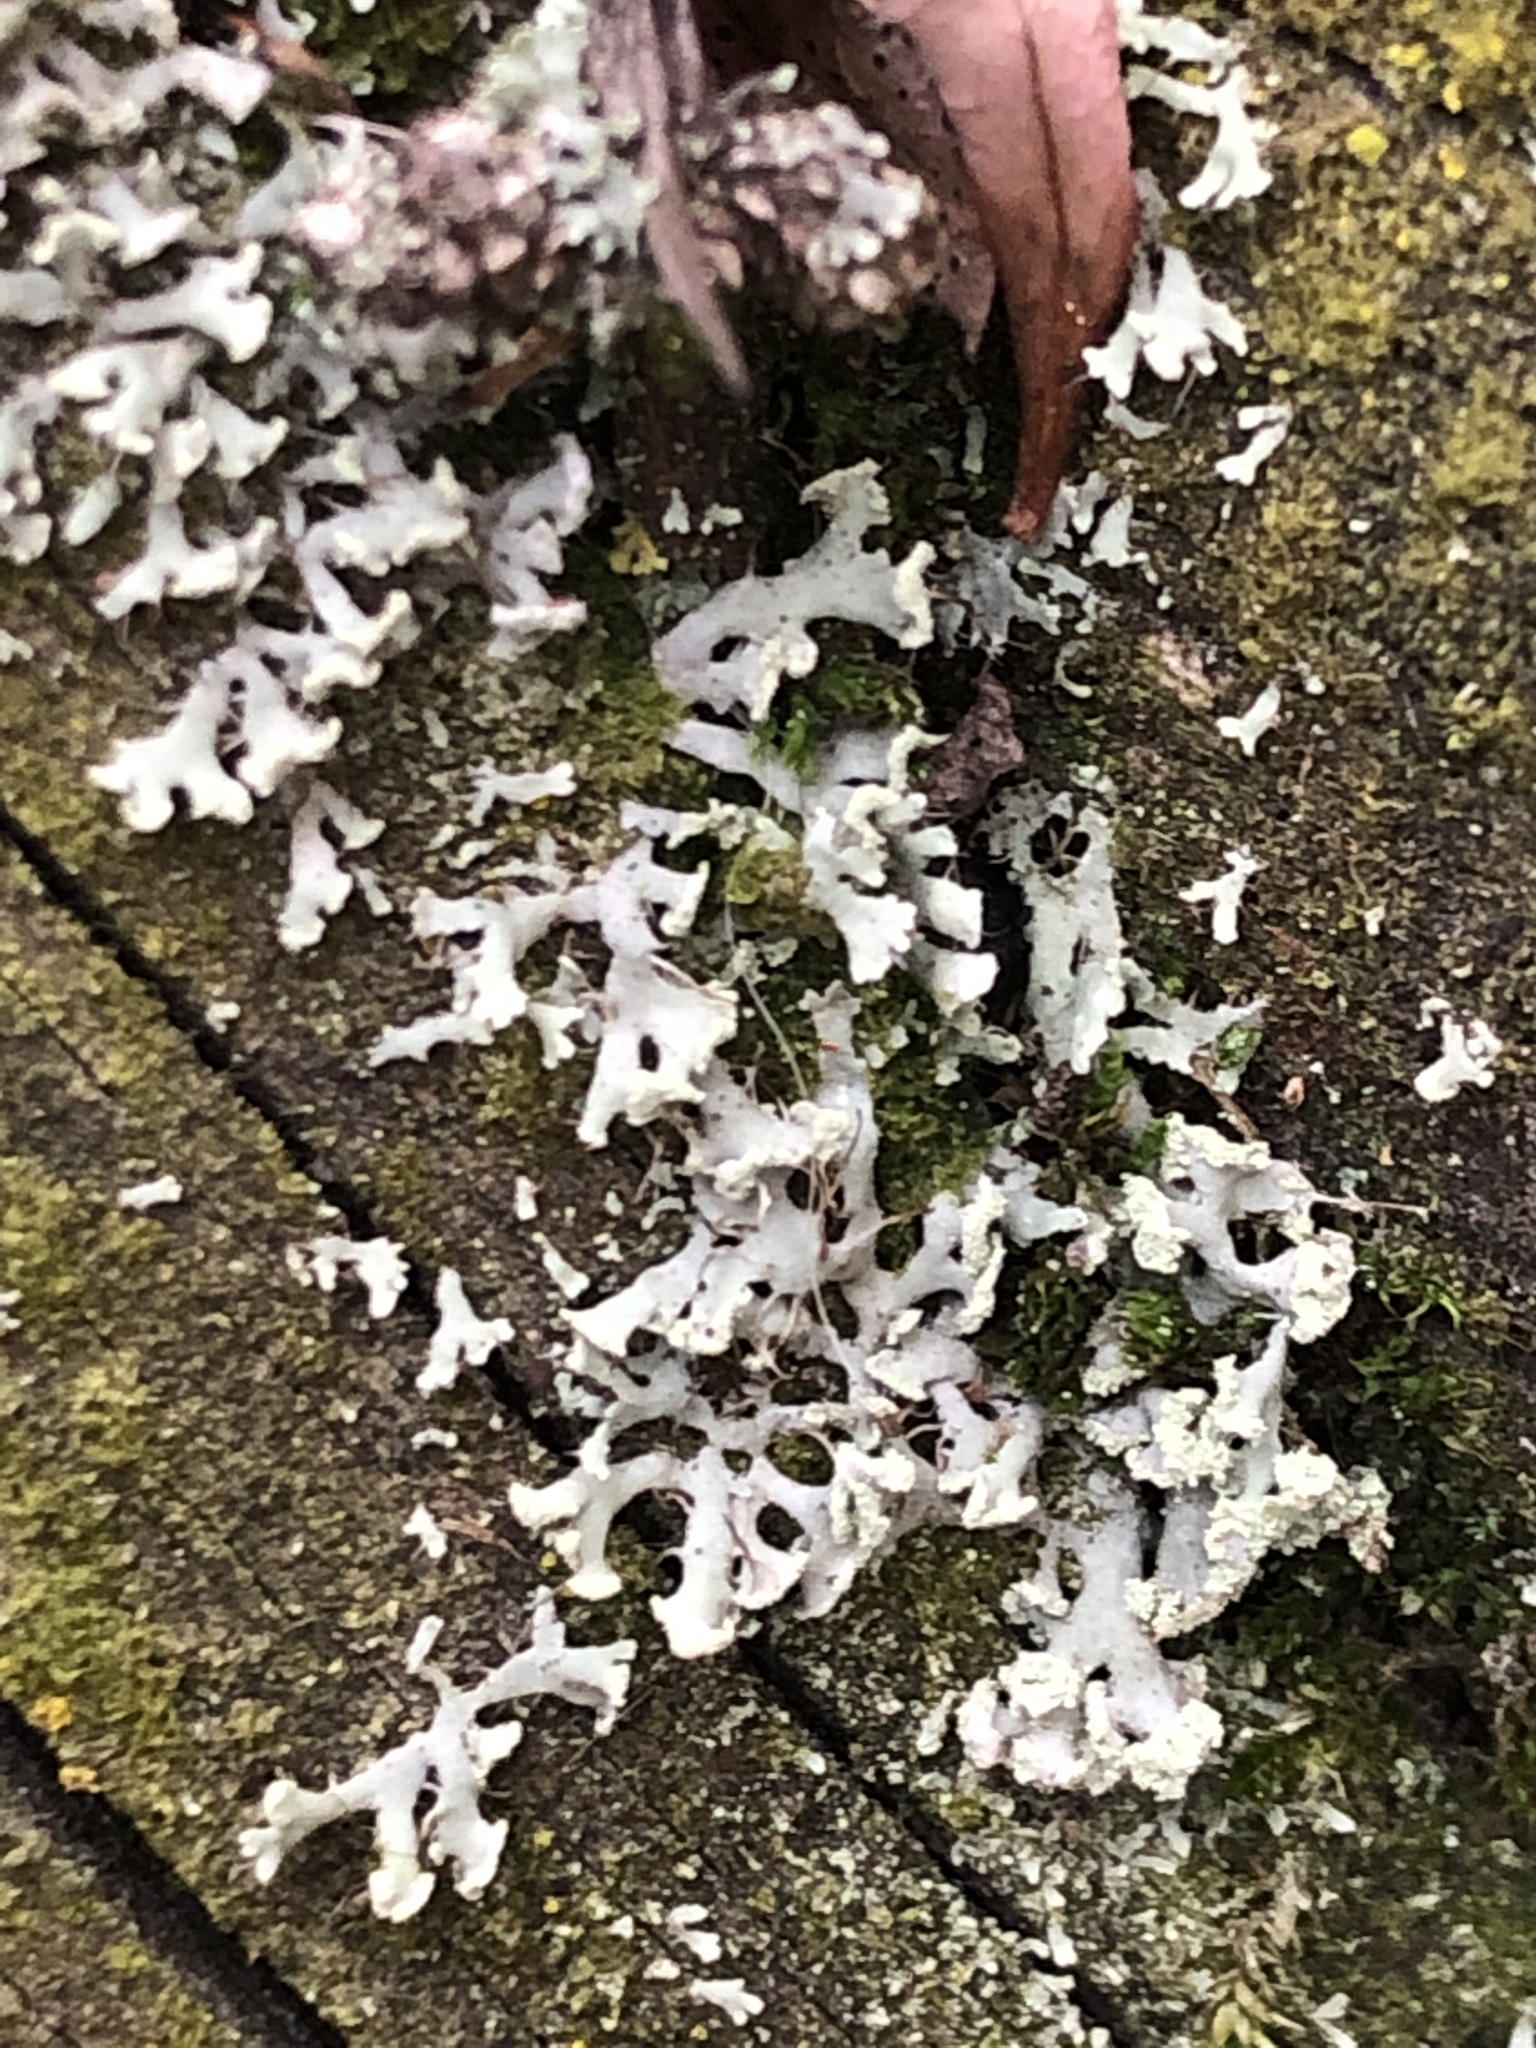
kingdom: Fungi
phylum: Ascomycota
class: Lecanoromycetes
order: Caliciales
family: Physciaceae
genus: Physcia
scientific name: Physcia tenella
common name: Fringed rosette lichen
